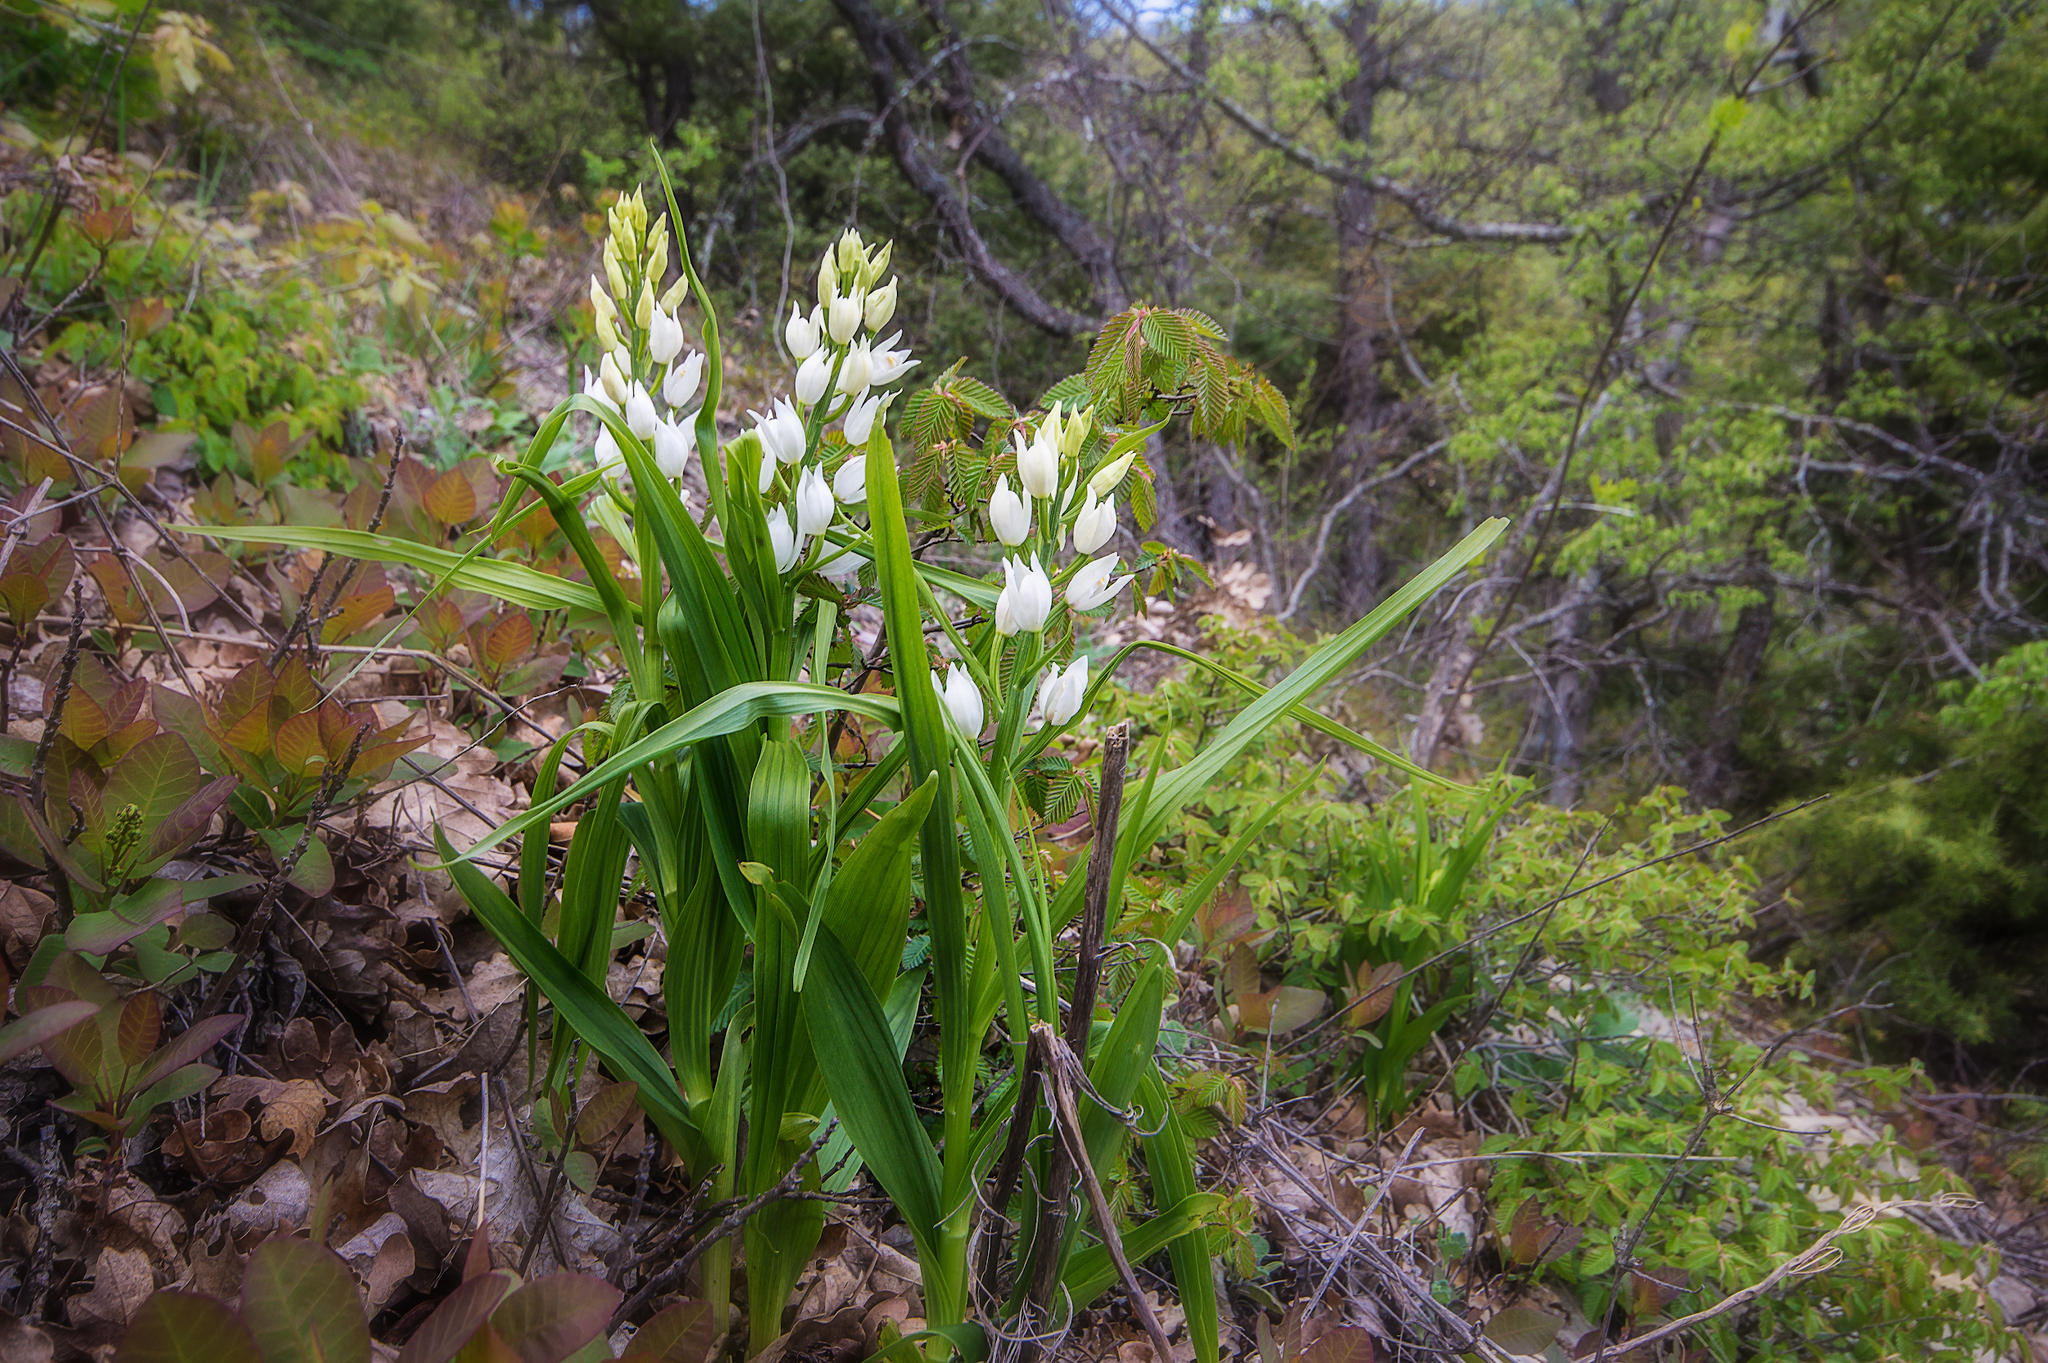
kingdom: Plantae
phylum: Tracheophyta
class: Liliopsida
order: Asparagales
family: Orchidaceae
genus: Cephalanthera
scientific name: Cephalanthera longifolia
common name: Narrow-leaved helleborine
